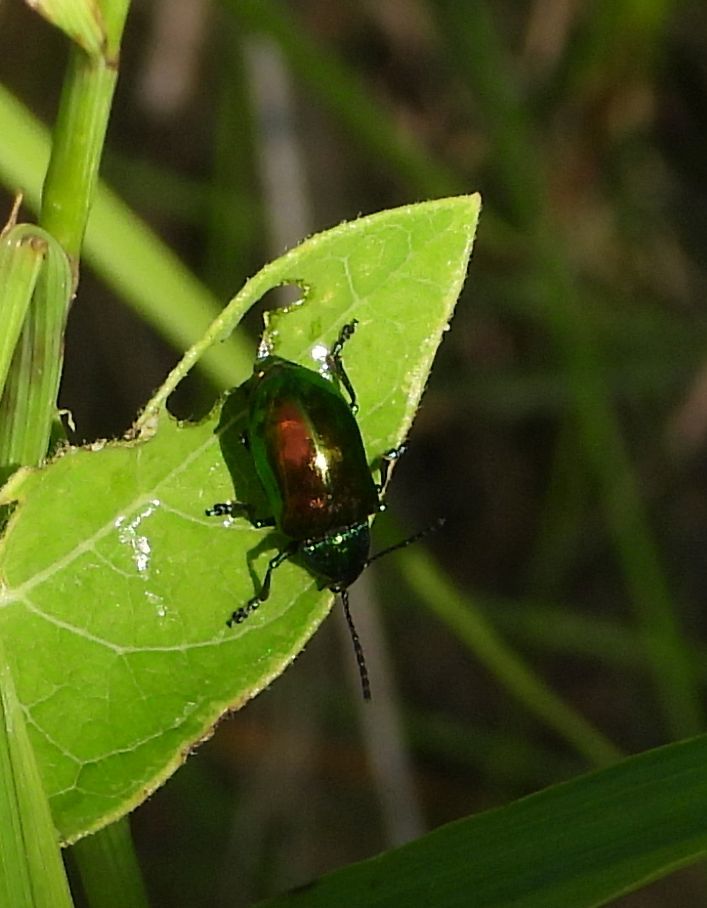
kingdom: Animalia
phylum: Arthropoda
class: Insecta
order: Coleoptera
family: Chrysomelidae
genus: Chrysochus
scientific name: Chrysochus auratus
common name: Dogbane leaf beetle
